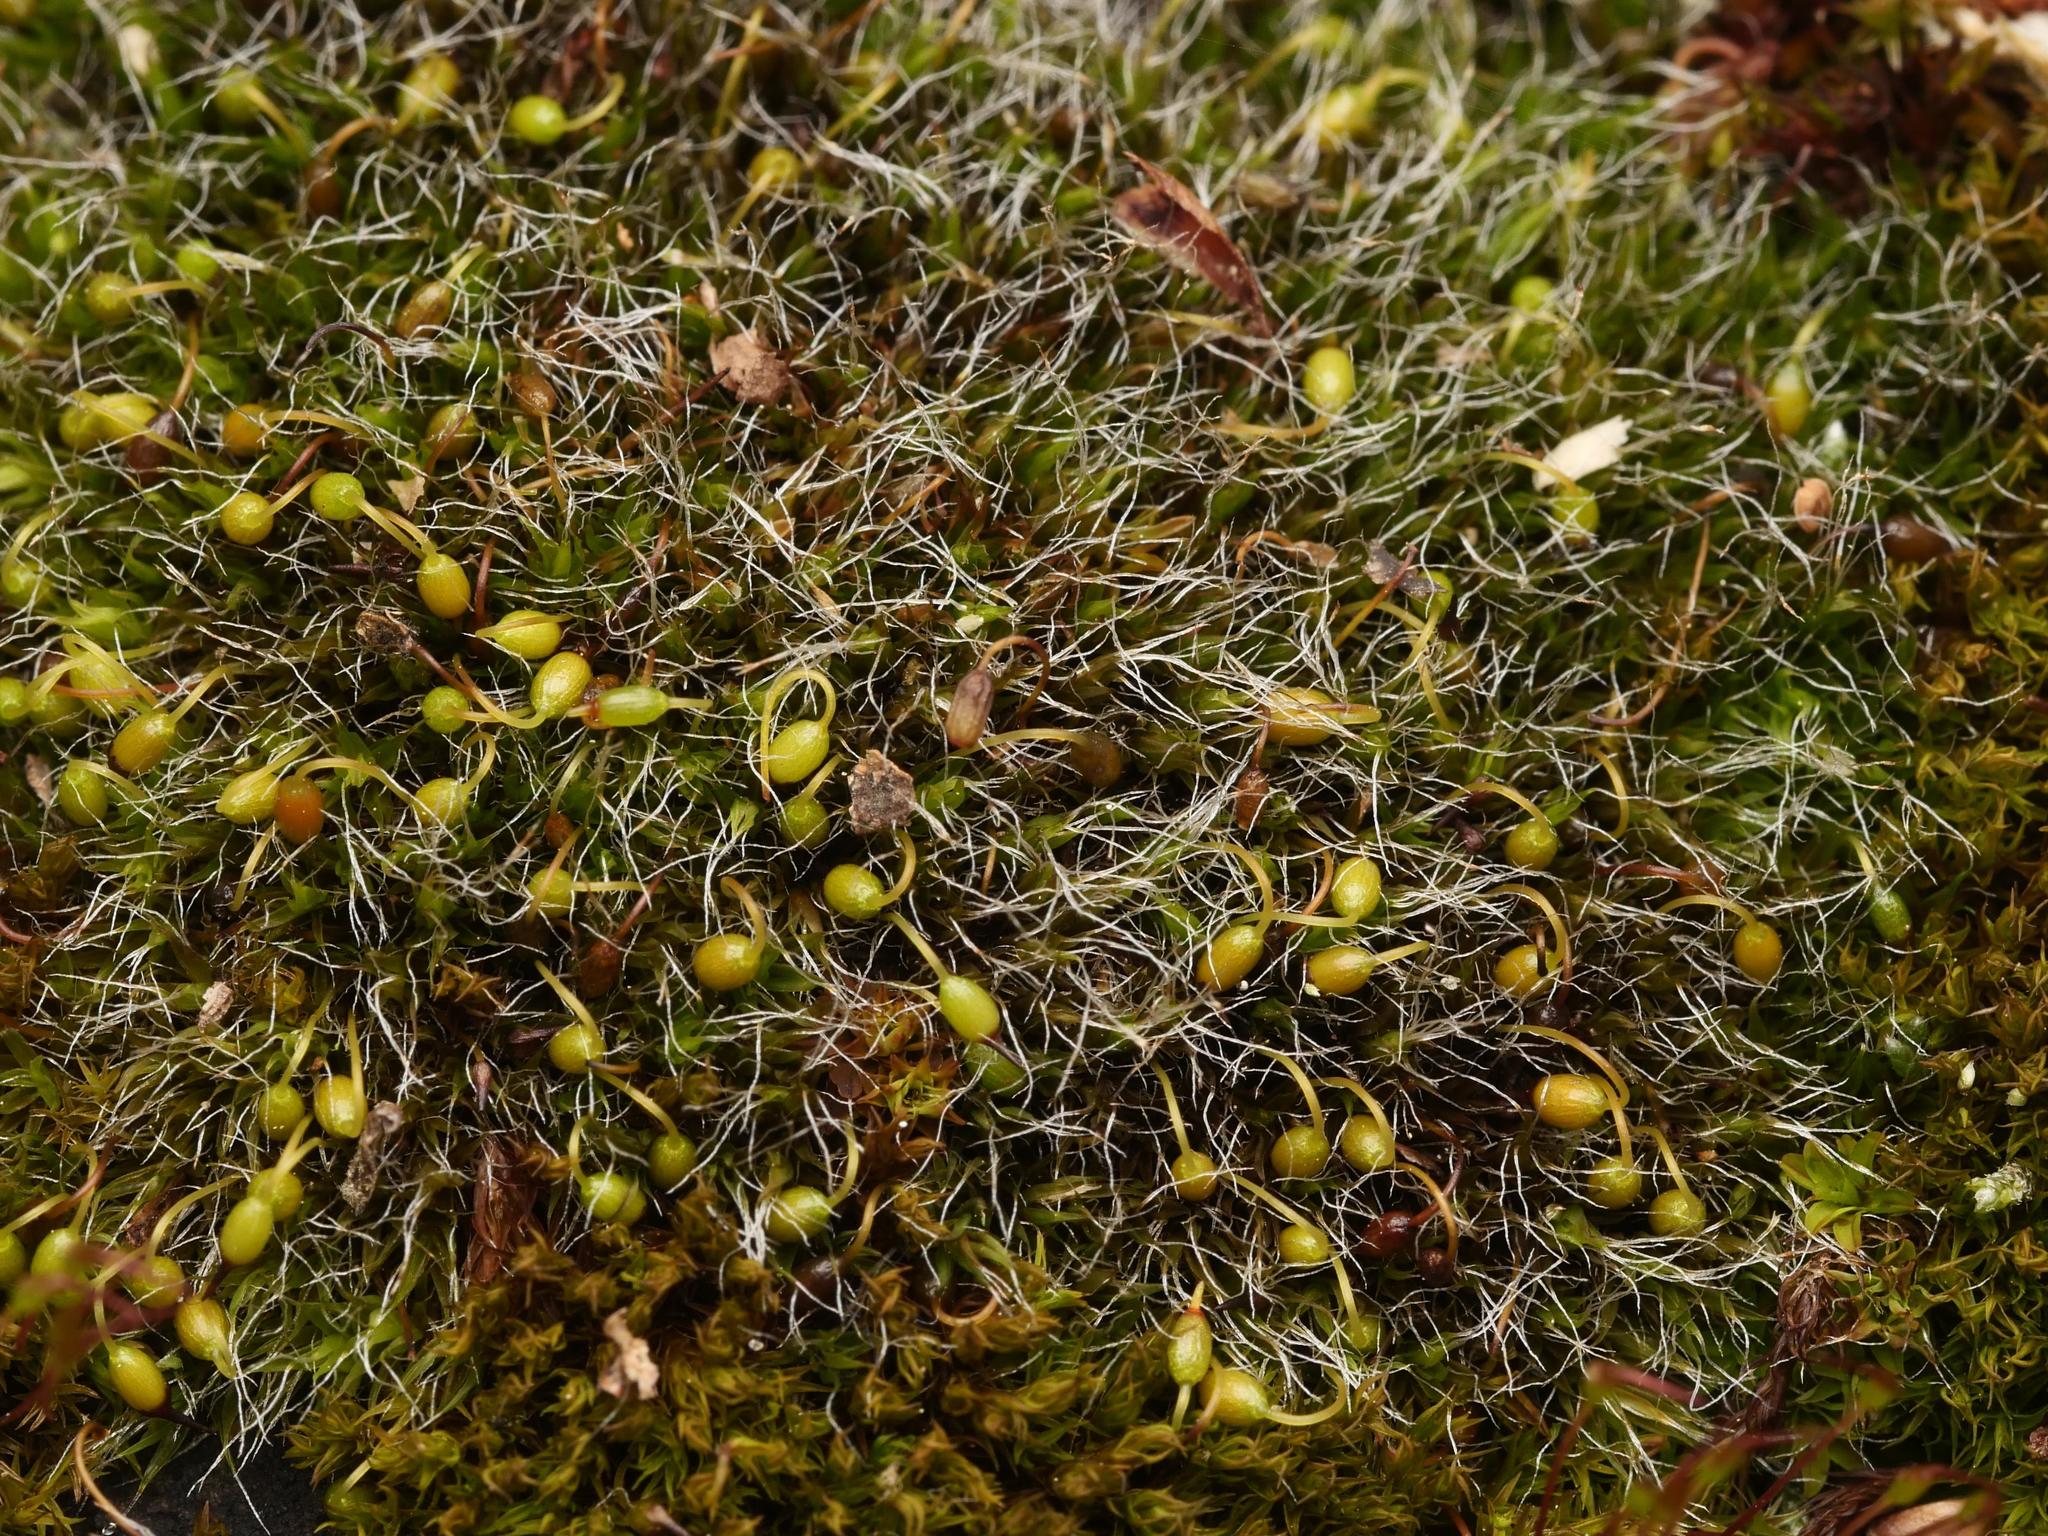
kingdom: Plantae
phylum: Bryophyta
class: Bryopsida
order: Grimmiales
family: Grimmiaceae
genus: Grimmia
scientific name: Grimmia pulvinata
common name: Grey-cushioned grimmia
